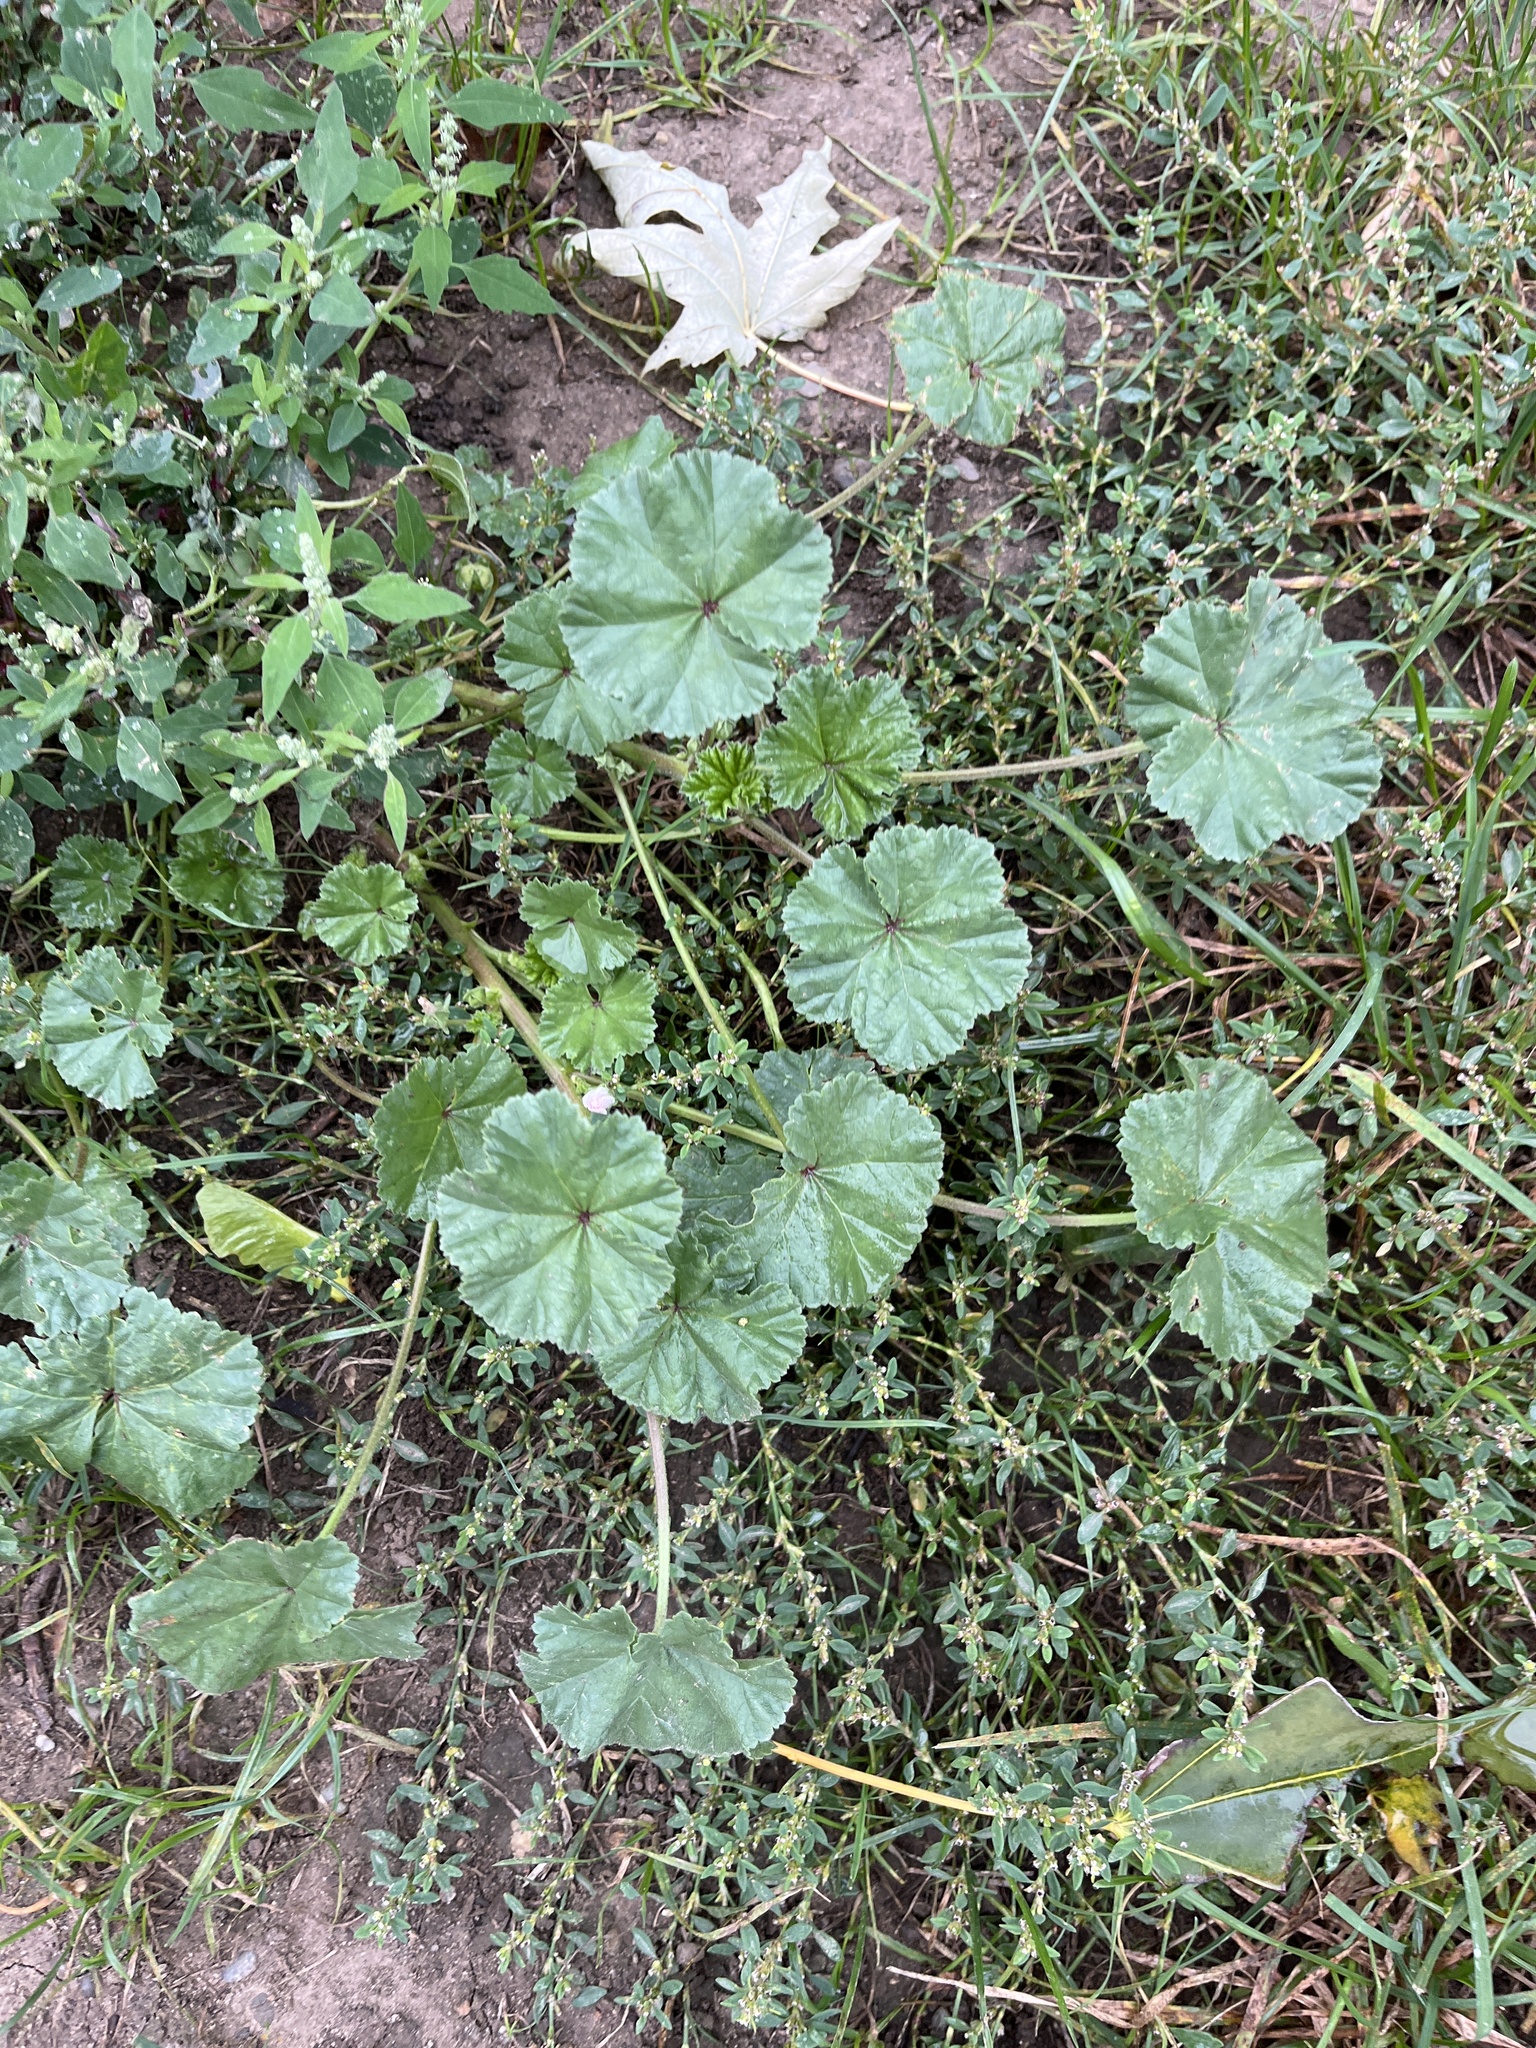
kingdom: Plantae
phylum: Tracheophyta
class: Magnoliopsida
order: Malvales
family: Malvaceae
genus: Malva
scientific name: Malva
